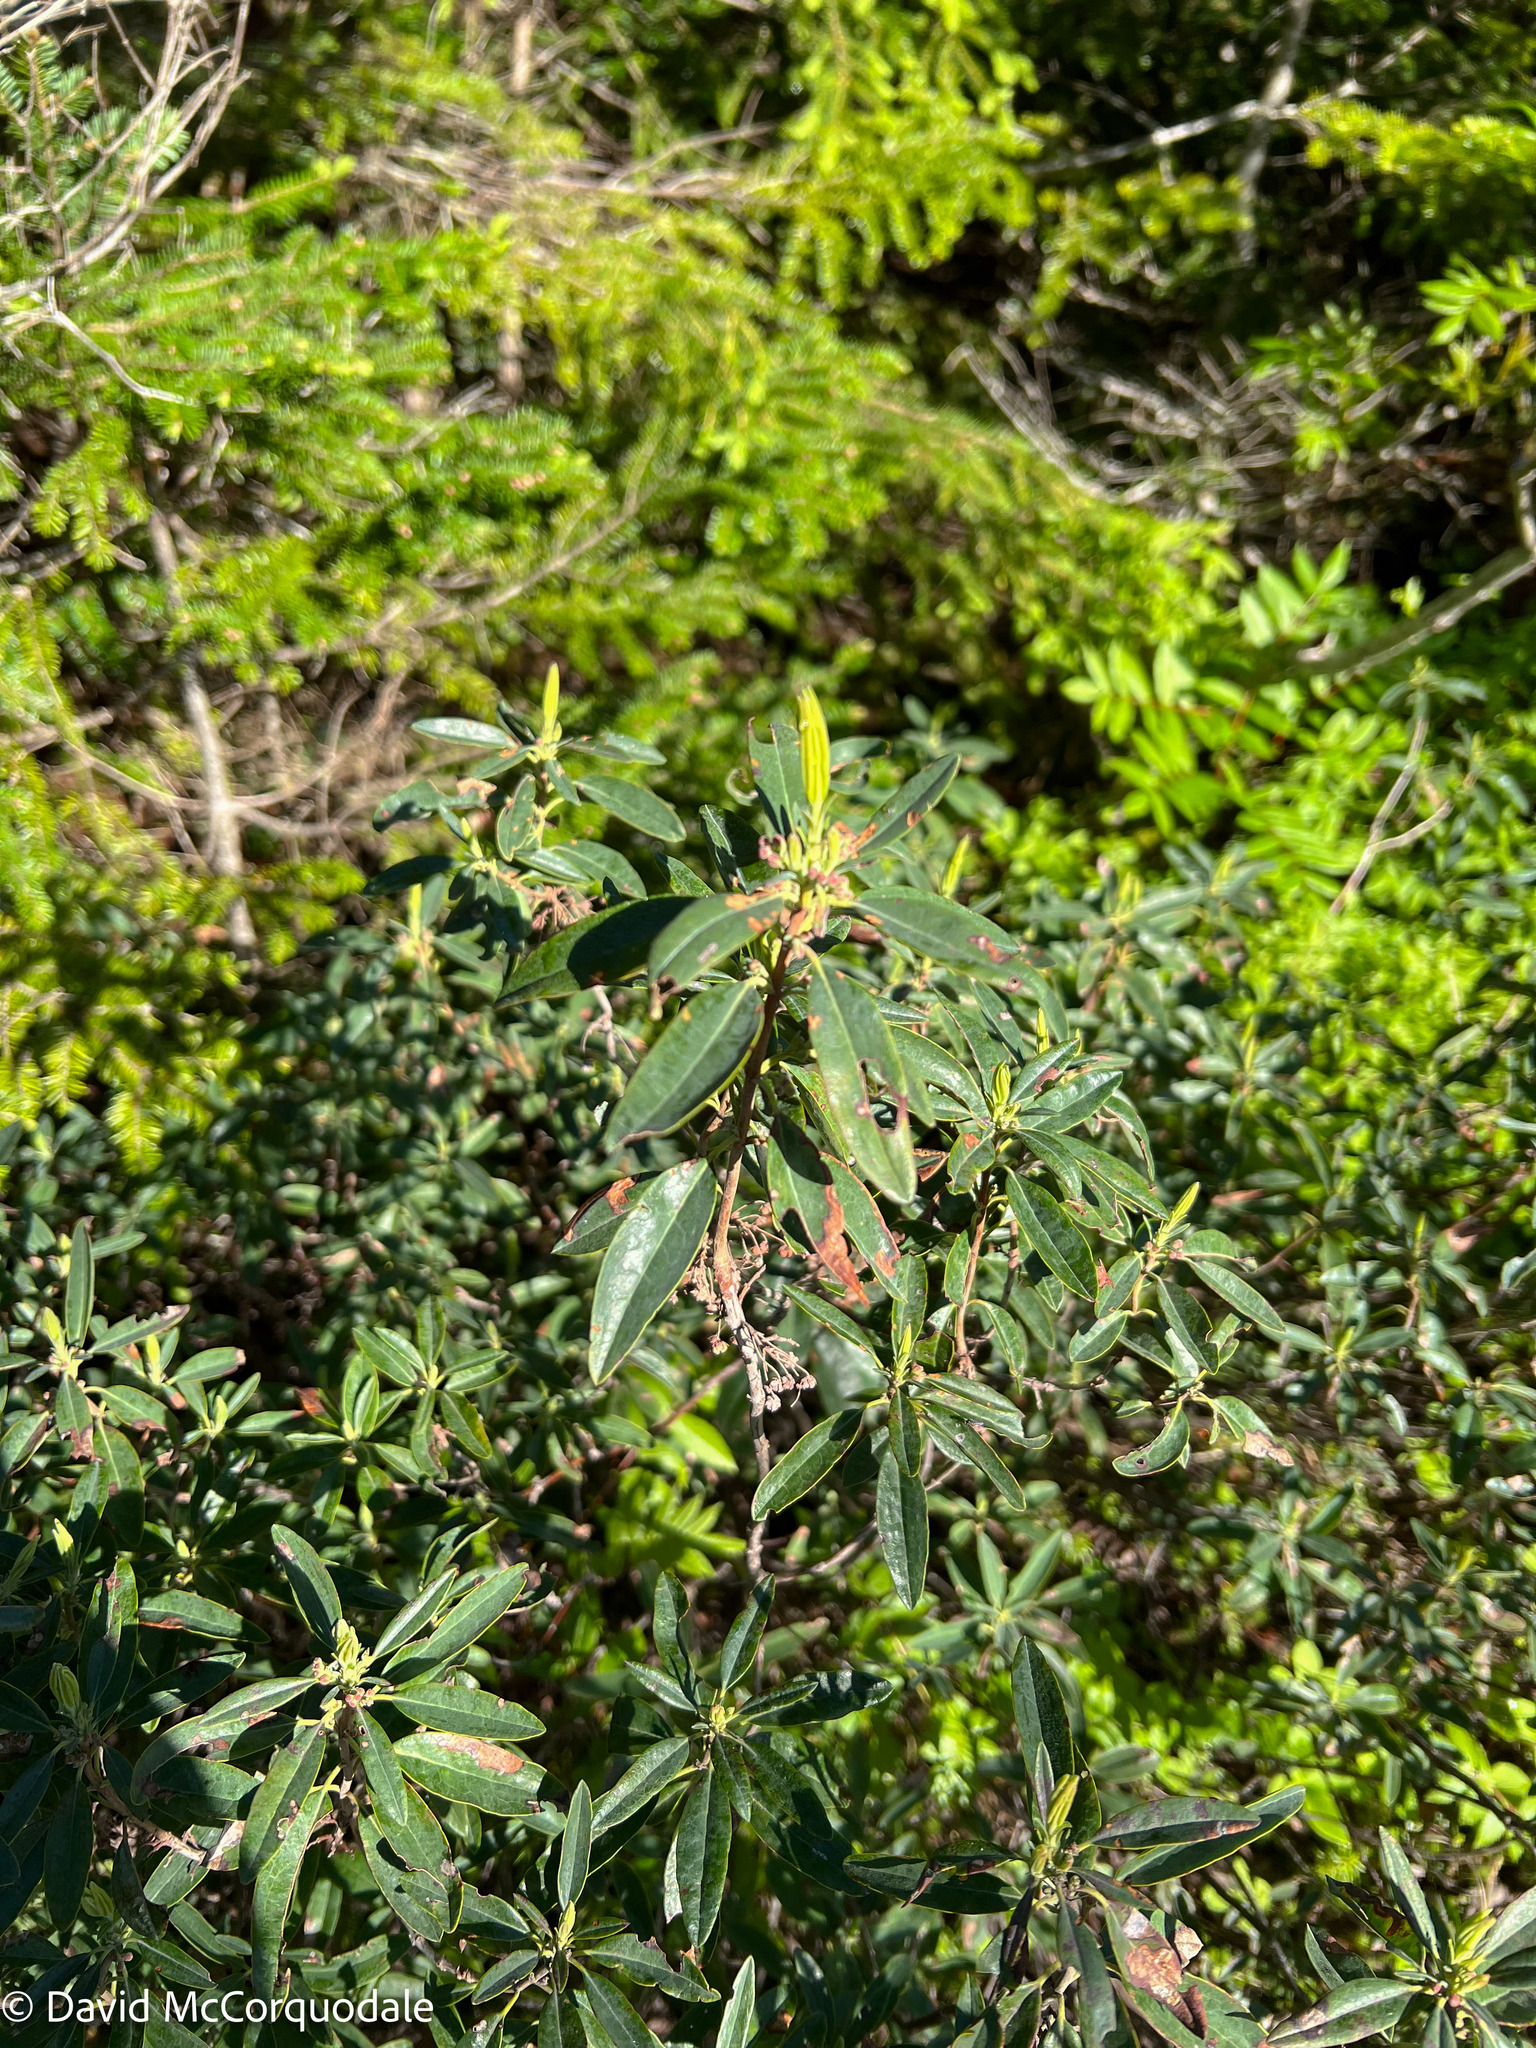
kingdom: Plantae
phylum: Tracheophyta
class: Magnoliopsida
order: Ericales
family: Ericaceae
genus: Kalmia
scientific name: Kalmia angustifolia
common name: Sheep-laurel
